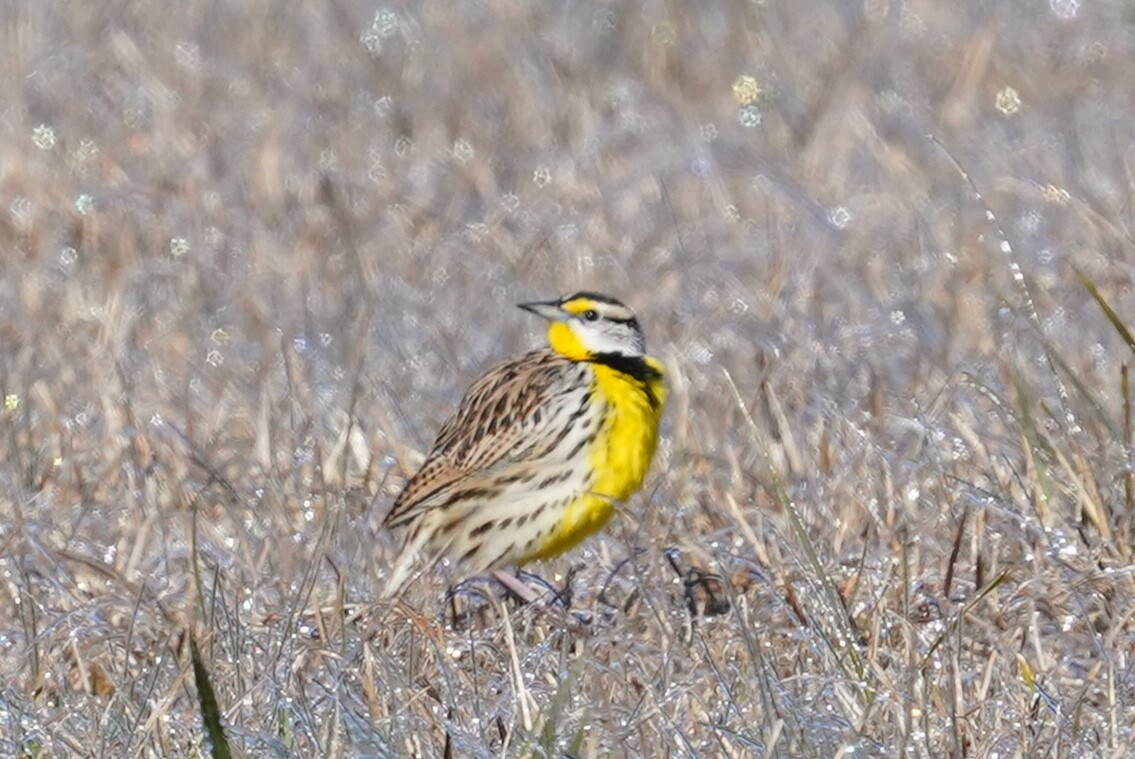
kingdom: Animalia
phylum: Chordata
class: Aves
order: Passeriformes
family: Icteridae
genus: Sturnella
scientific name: Sturnella magna
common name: Eastern meadowlark
